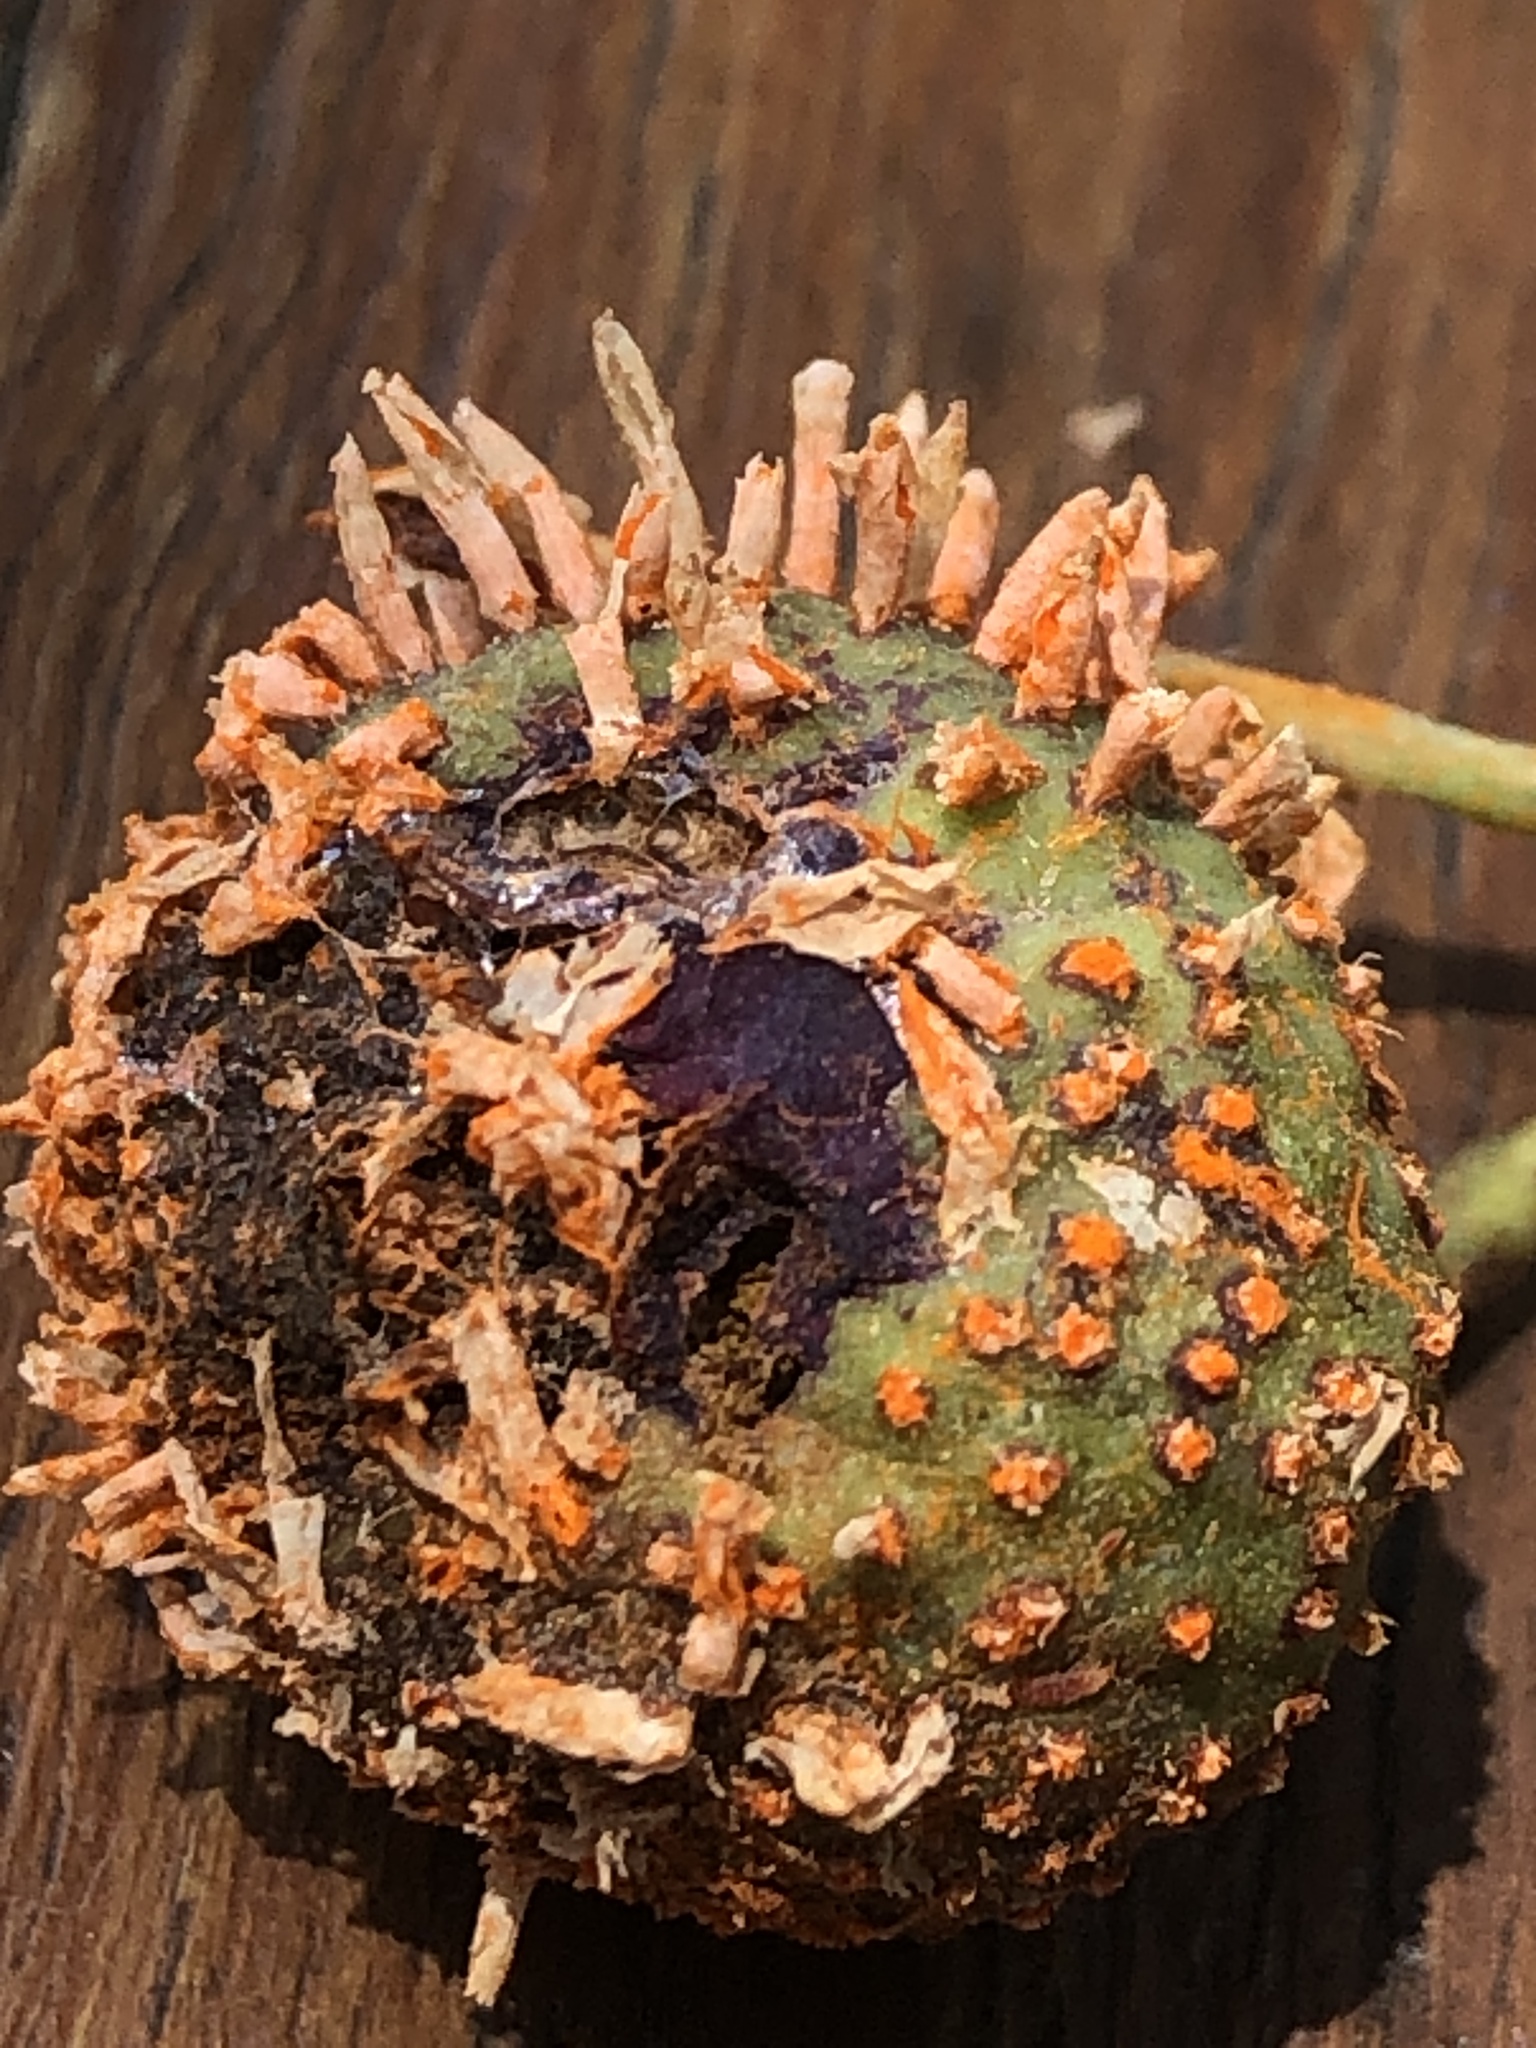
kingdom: Fungi
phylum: Basidiomycota
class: Pucciniomycetes
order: Pucciniales
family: Gymnosporangiaceae
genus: Gymnosporangium
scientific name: Gymnosporangium clavipes
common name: Quince rust
